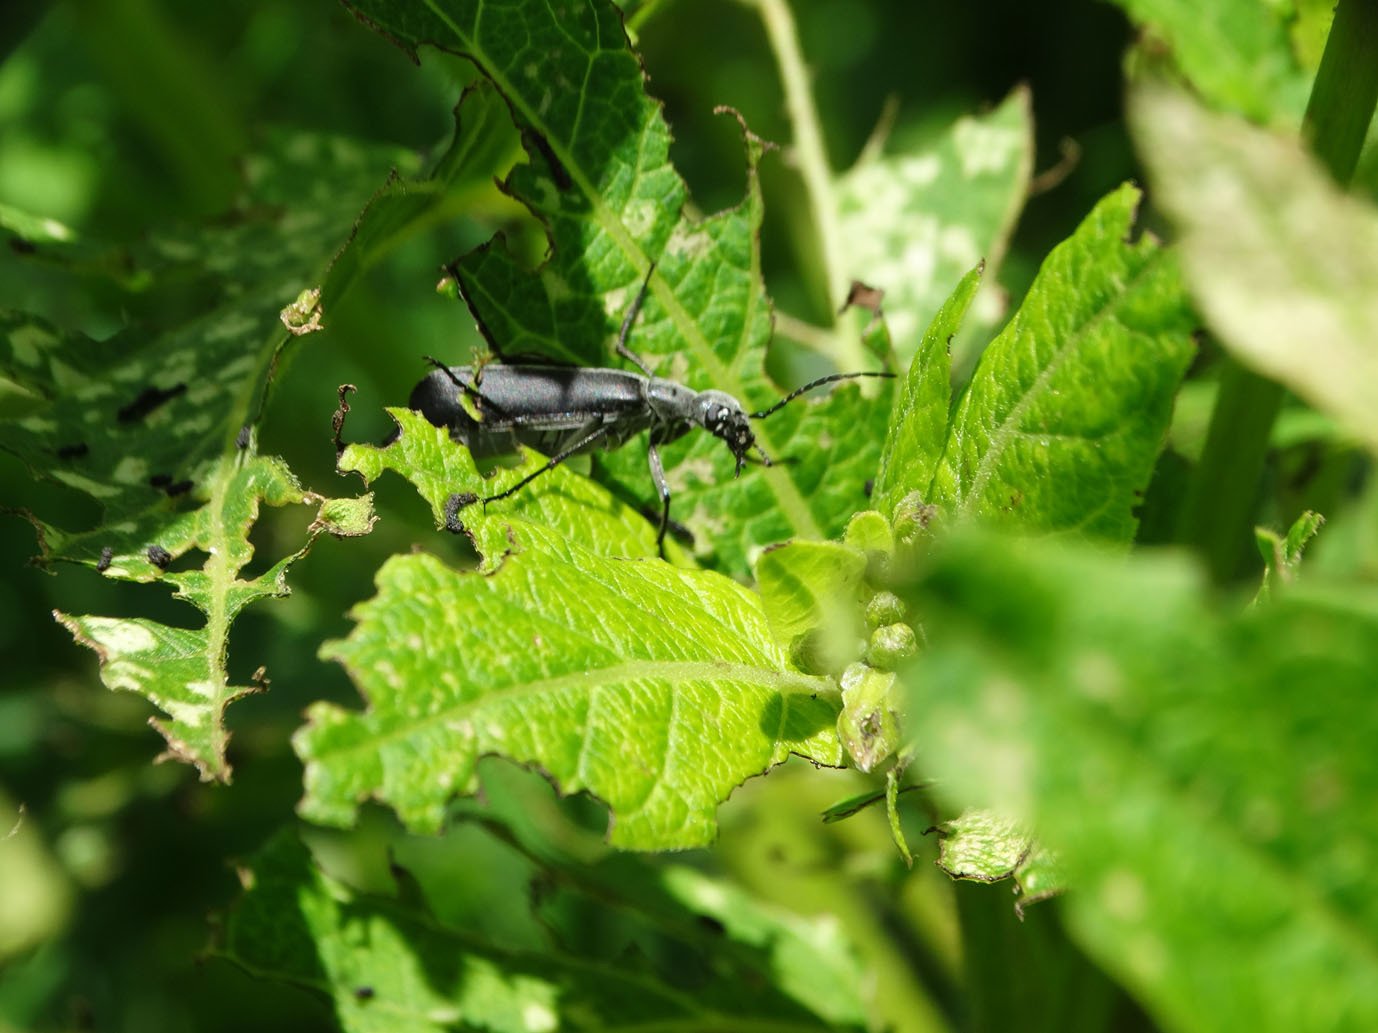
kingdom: Animalia
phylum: Arthropoda
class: Insecta
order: Coleoptera
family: Meloidae
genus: Epicauta
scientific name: Epicauta curvicornis
